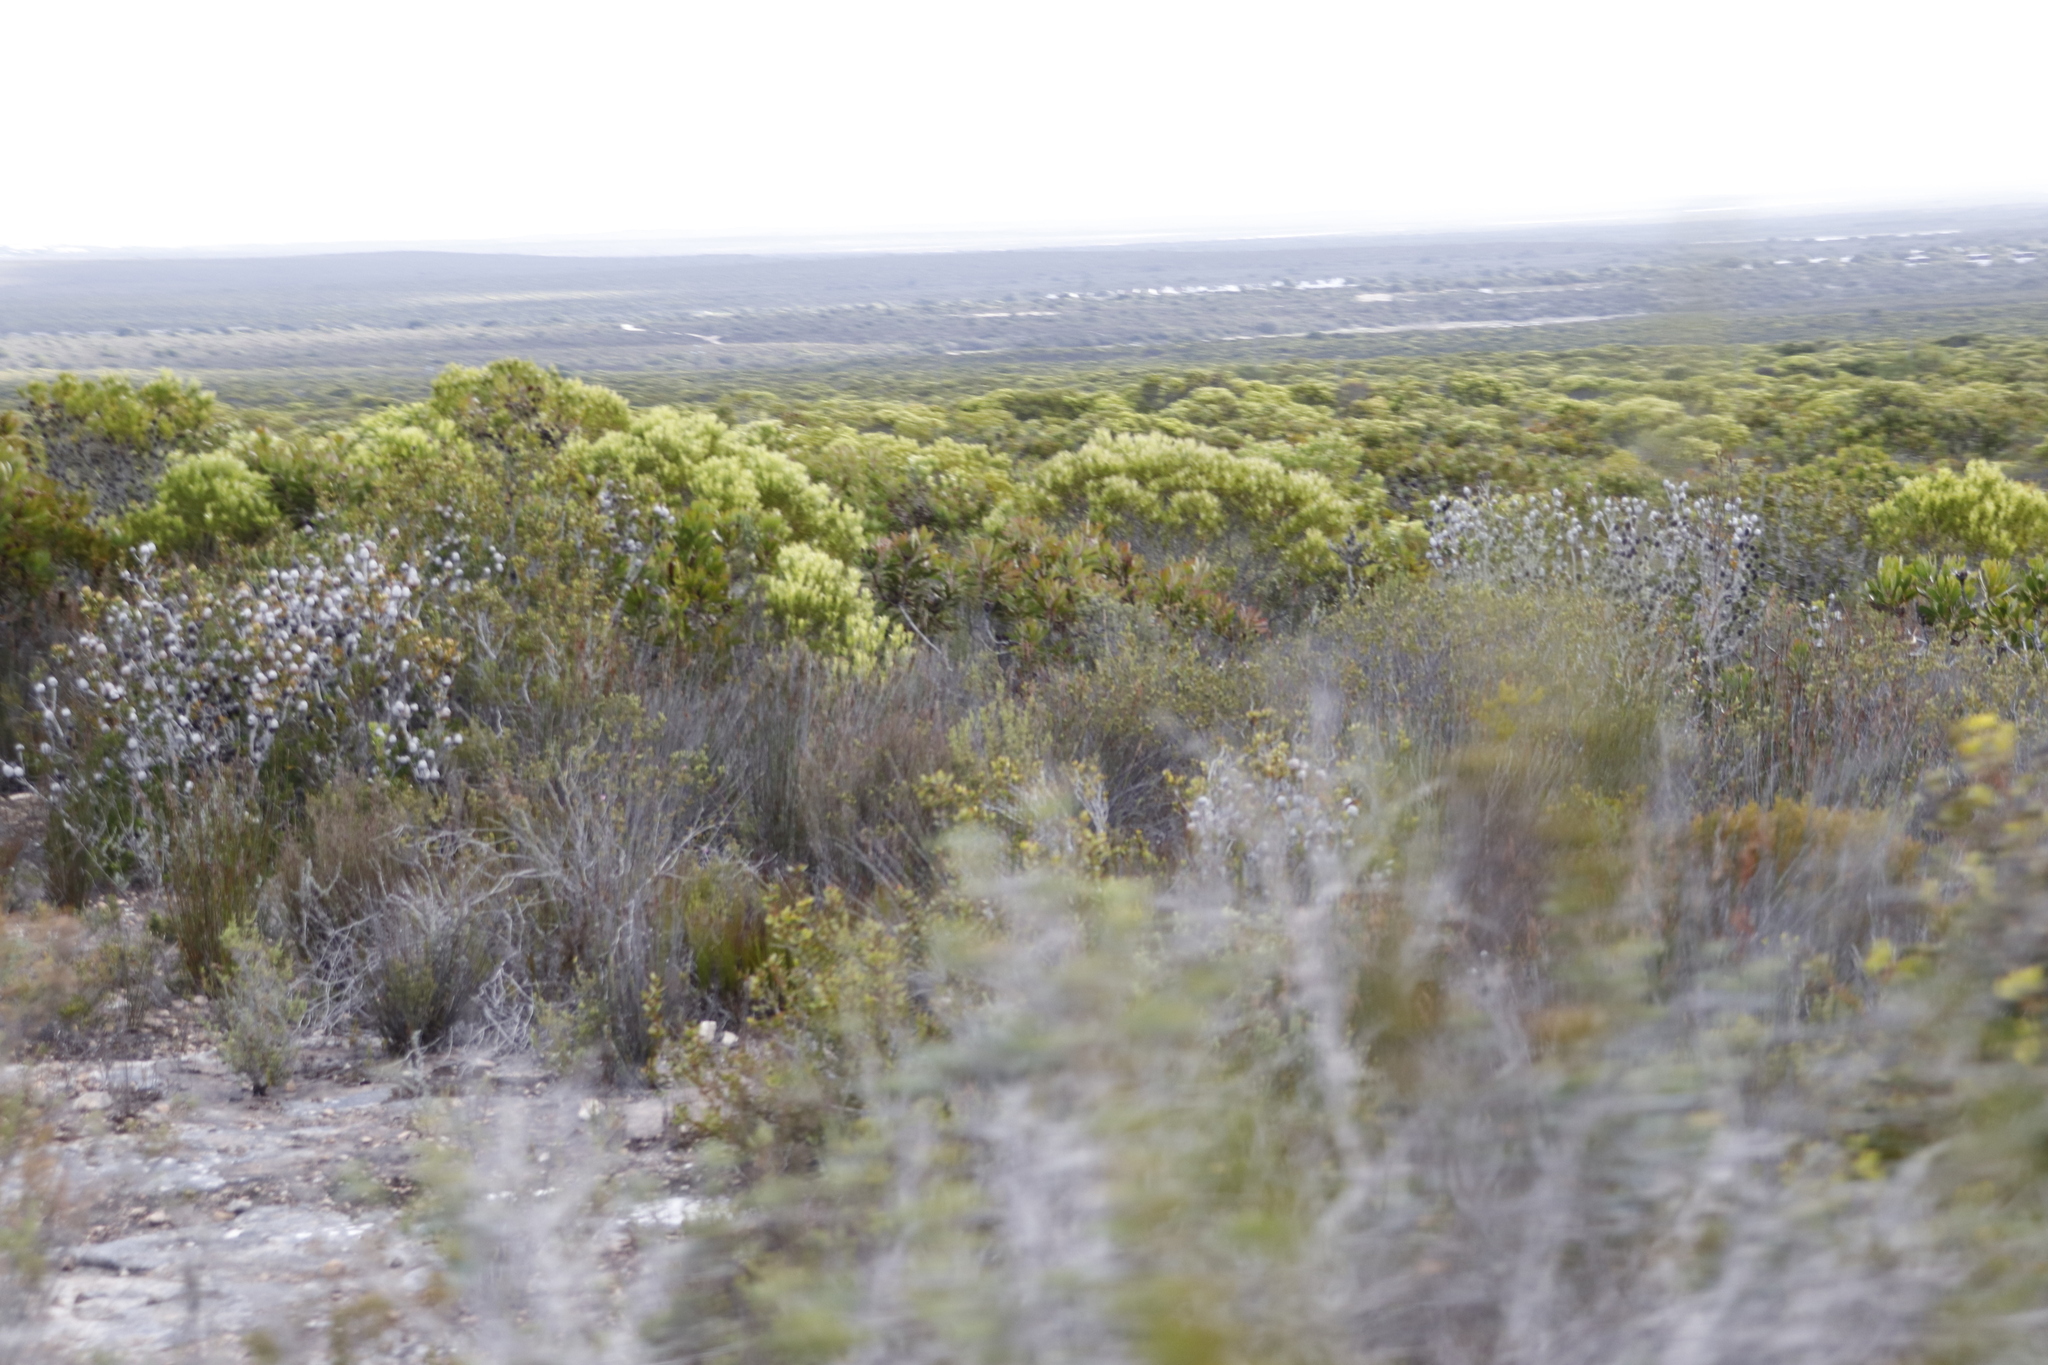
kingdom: Plantae
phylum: Tracheophyta
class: Magnoliopsida
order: Proteales
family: Proteaceae
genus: Leucadendron
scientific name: Leucadendron meridianum
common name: Limestone conebush
